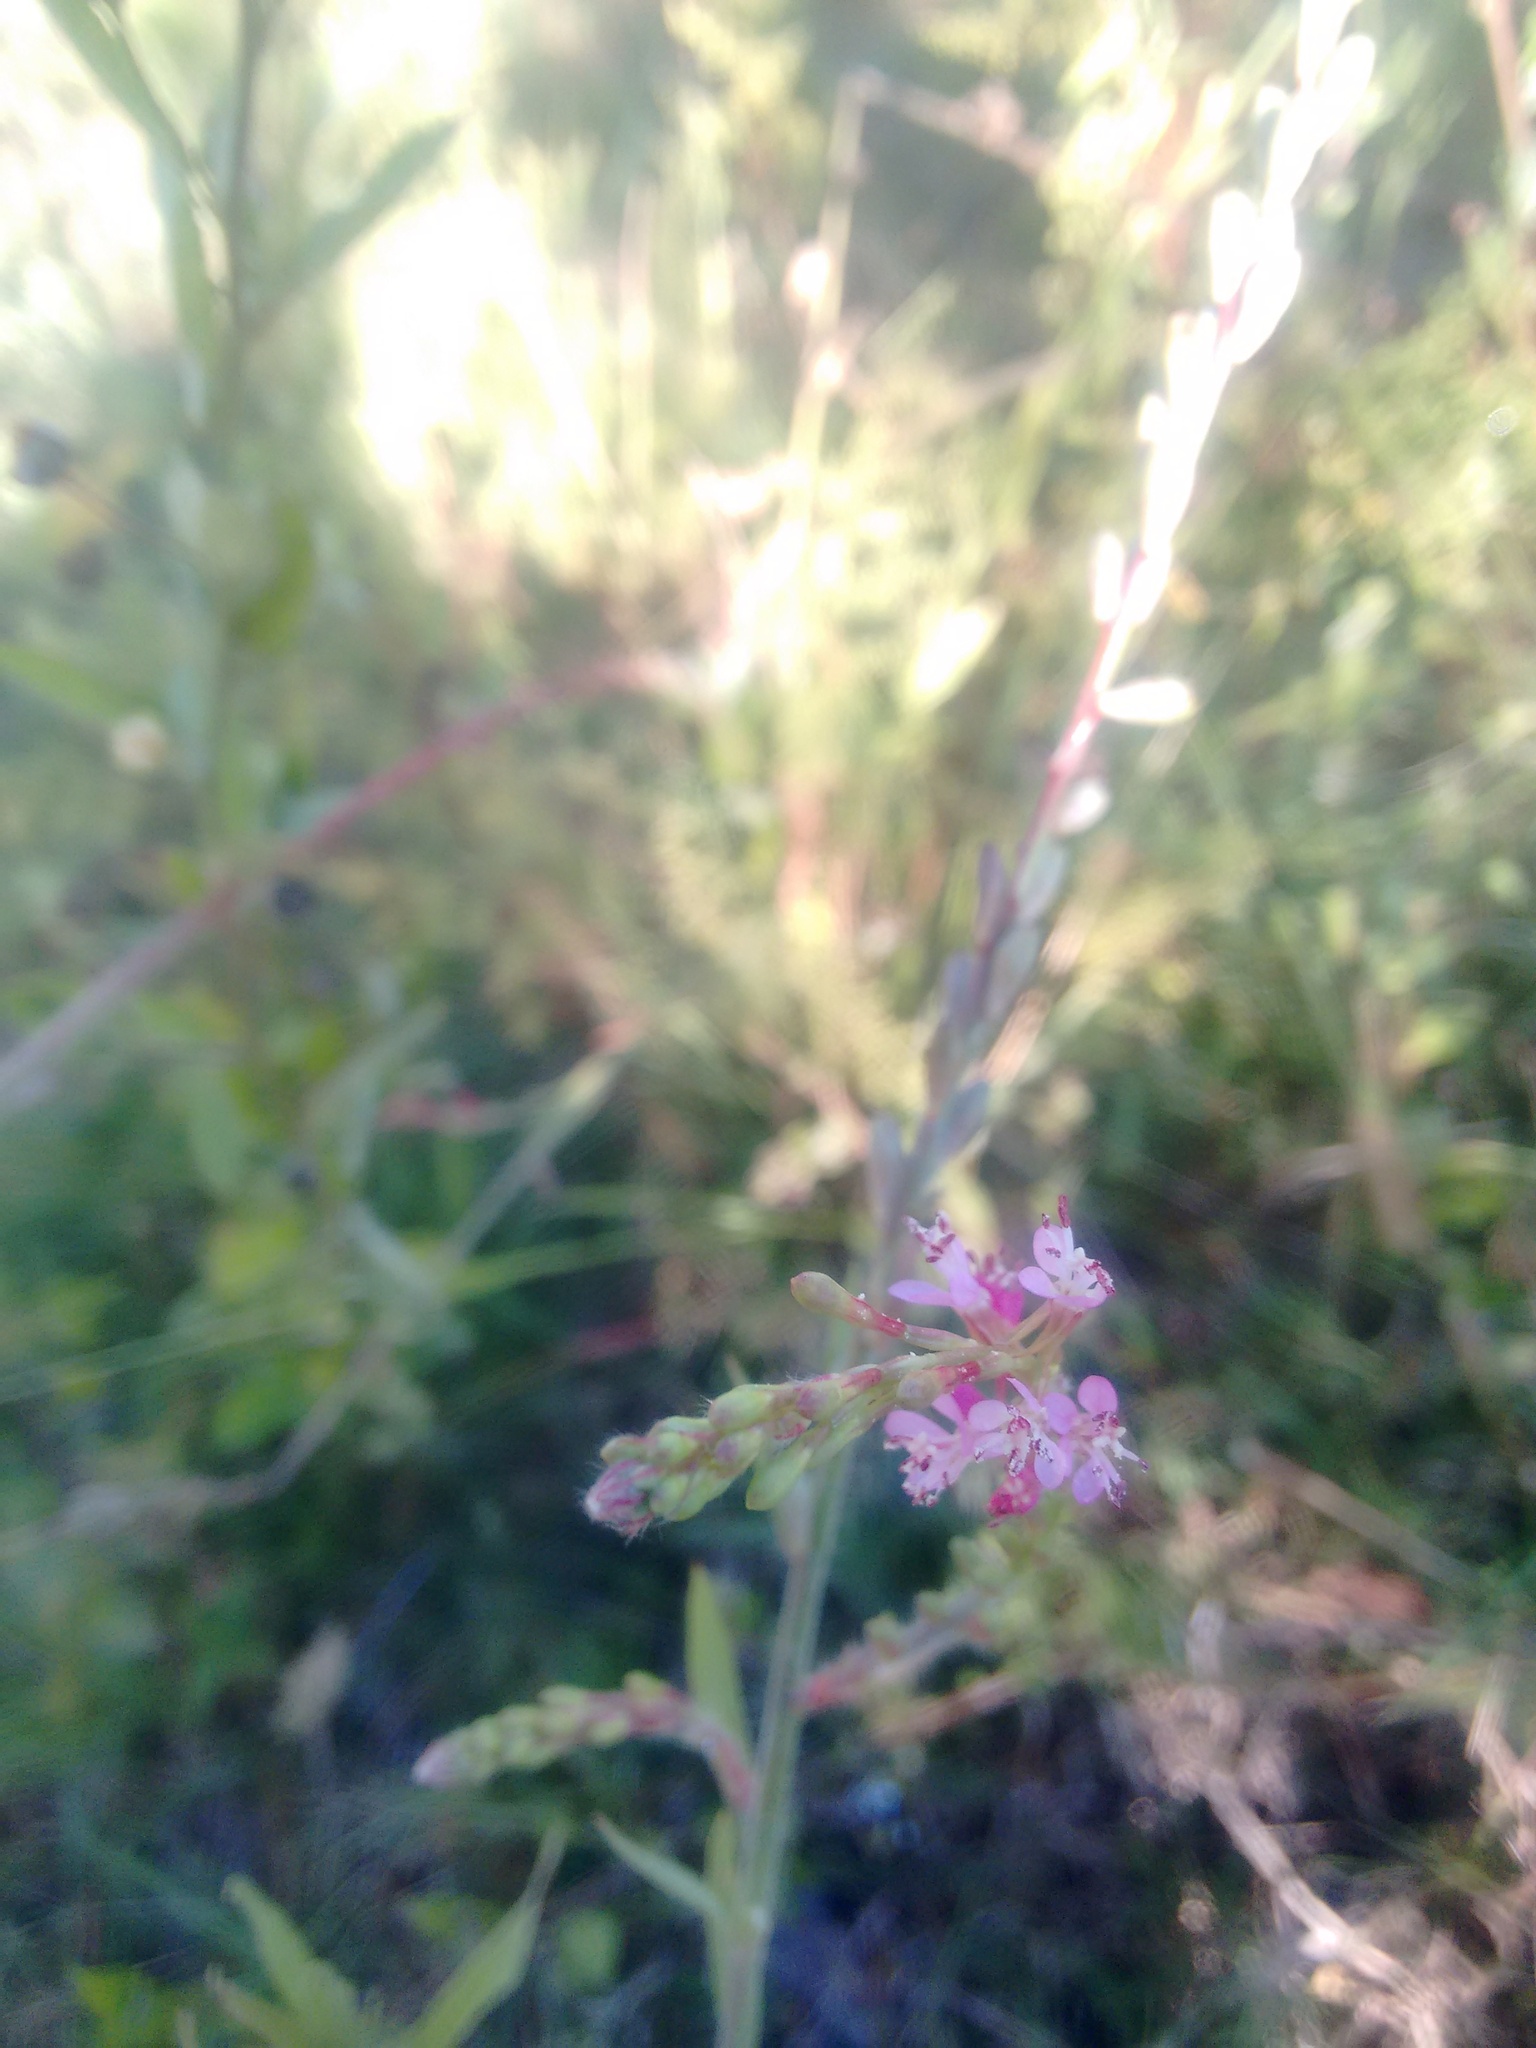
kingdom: Plantae
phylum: Tracheophyta
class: Magnoliopsida
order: Myrtales
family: Onagraceae
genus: Oenothera
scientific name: Oenothera curtiflora
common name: Velvetweed
